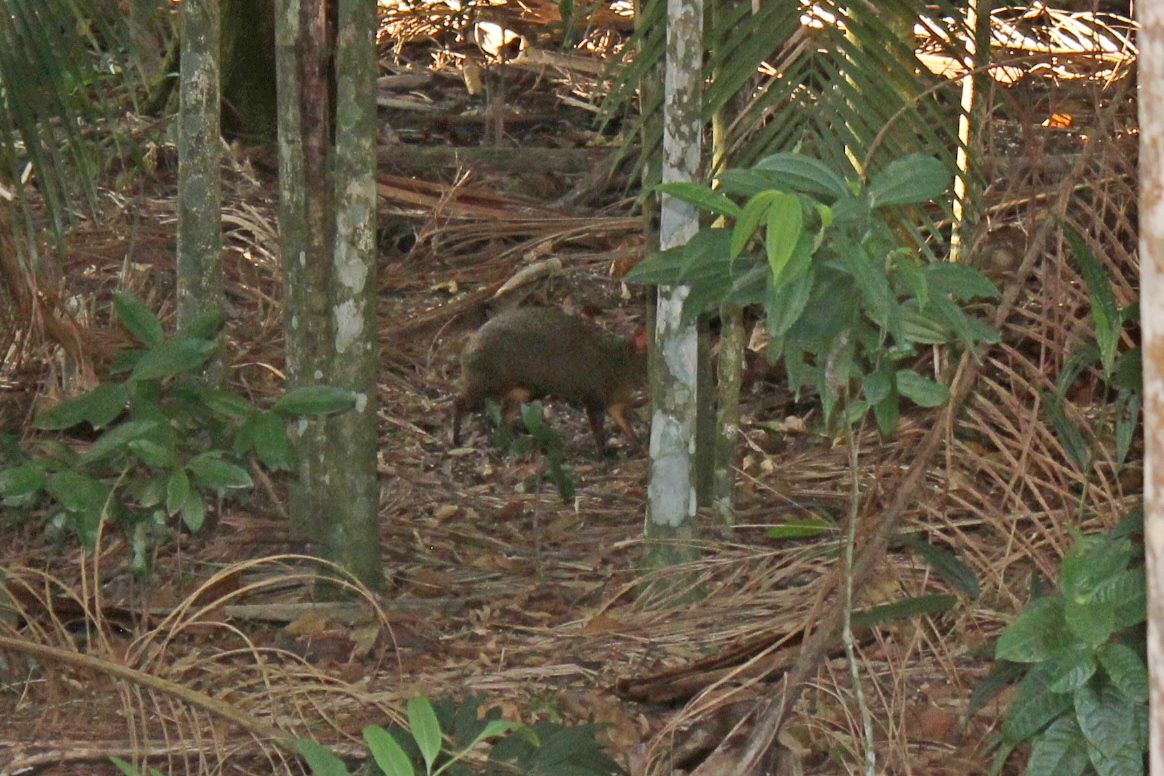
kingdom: Animalia
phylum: Chordata
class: Mammalia
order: Rodentia
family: Dasyproctidae
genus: Dasyprocta
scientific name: Dasyprocta azarae
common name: Azara's agouti
